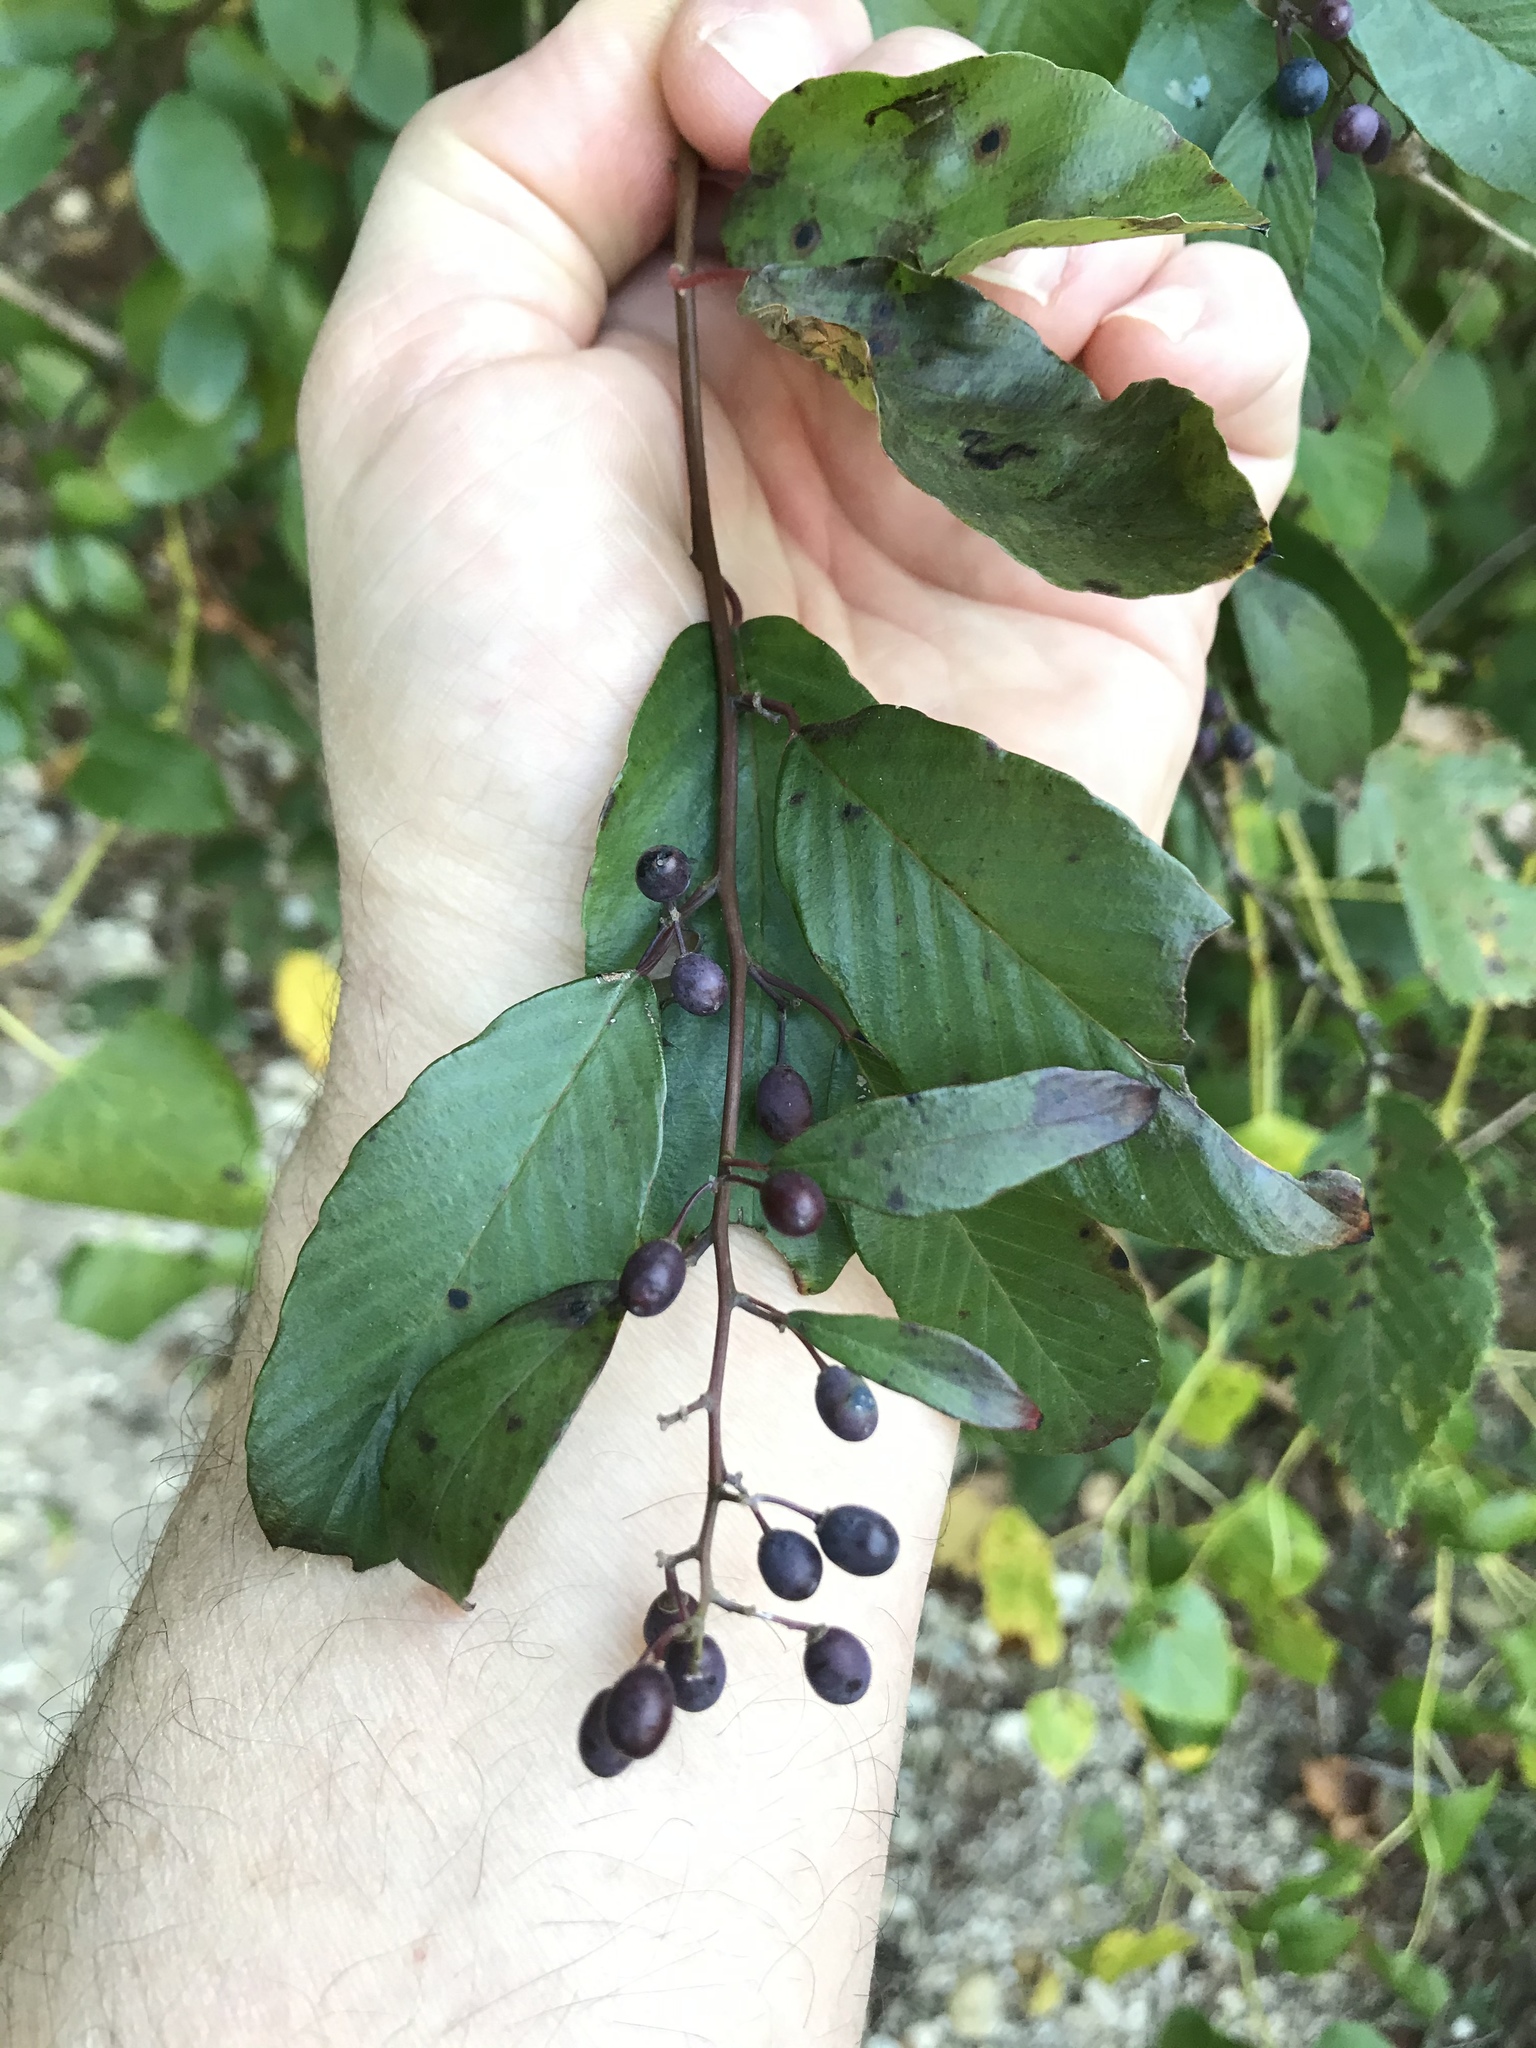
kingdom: Plantae
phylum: Tracheophyta
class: Magnoliopsida
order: Rosales
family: Rhamnaceae
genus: Berchemia
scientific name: Berchemia scandens
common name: Supplejack
